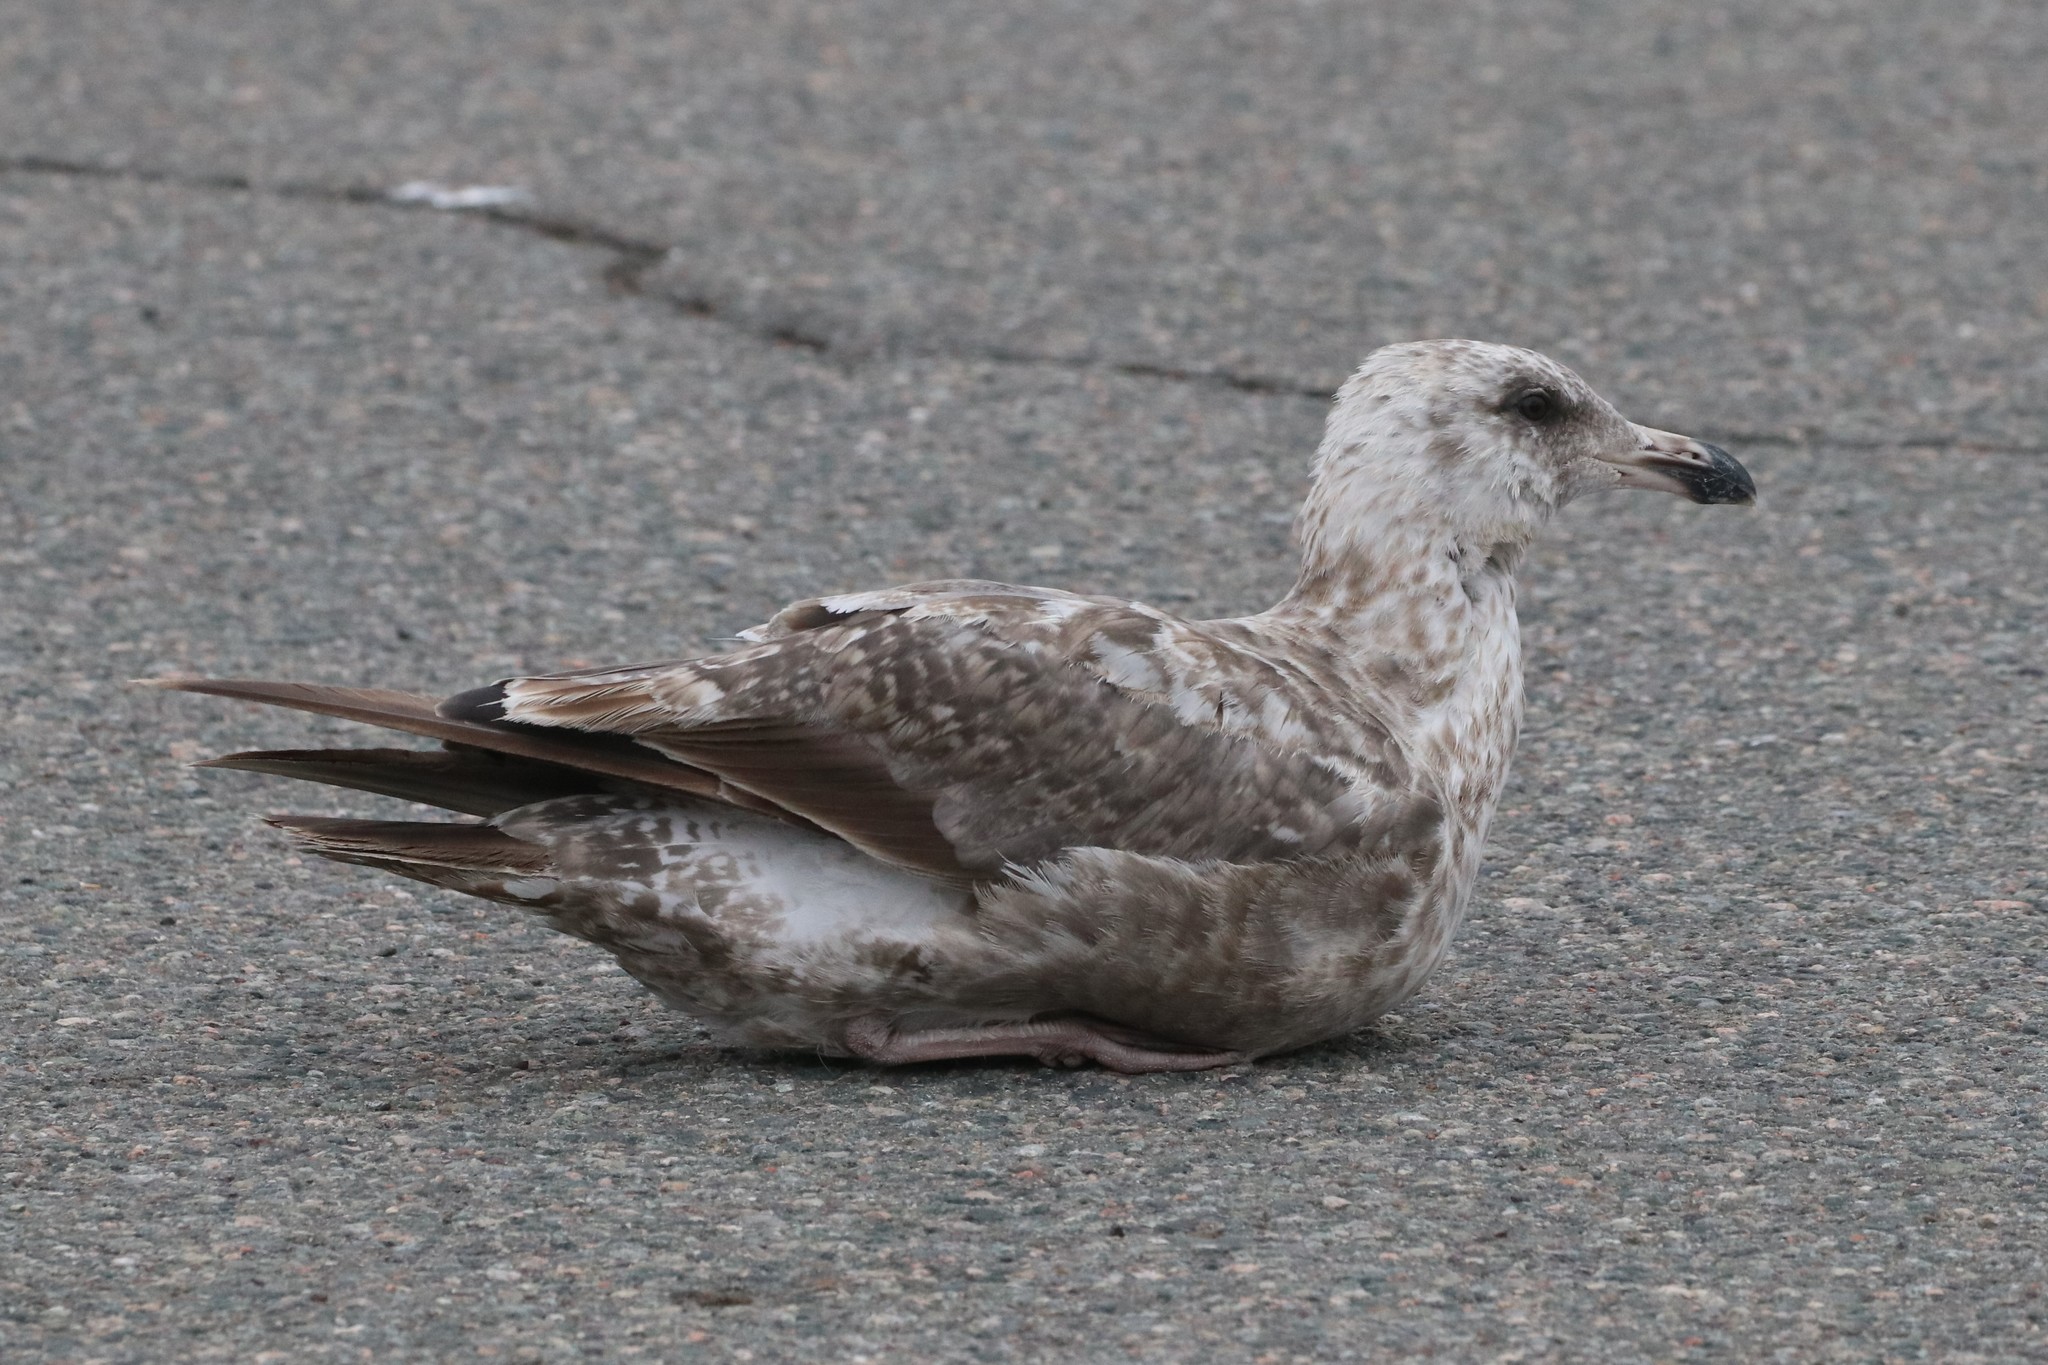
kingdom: Animalia
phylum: Chordata
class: Aves
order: Charadriiformes
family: Laridae
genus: Larus
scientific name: Larus argentatus
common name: Herring gull
